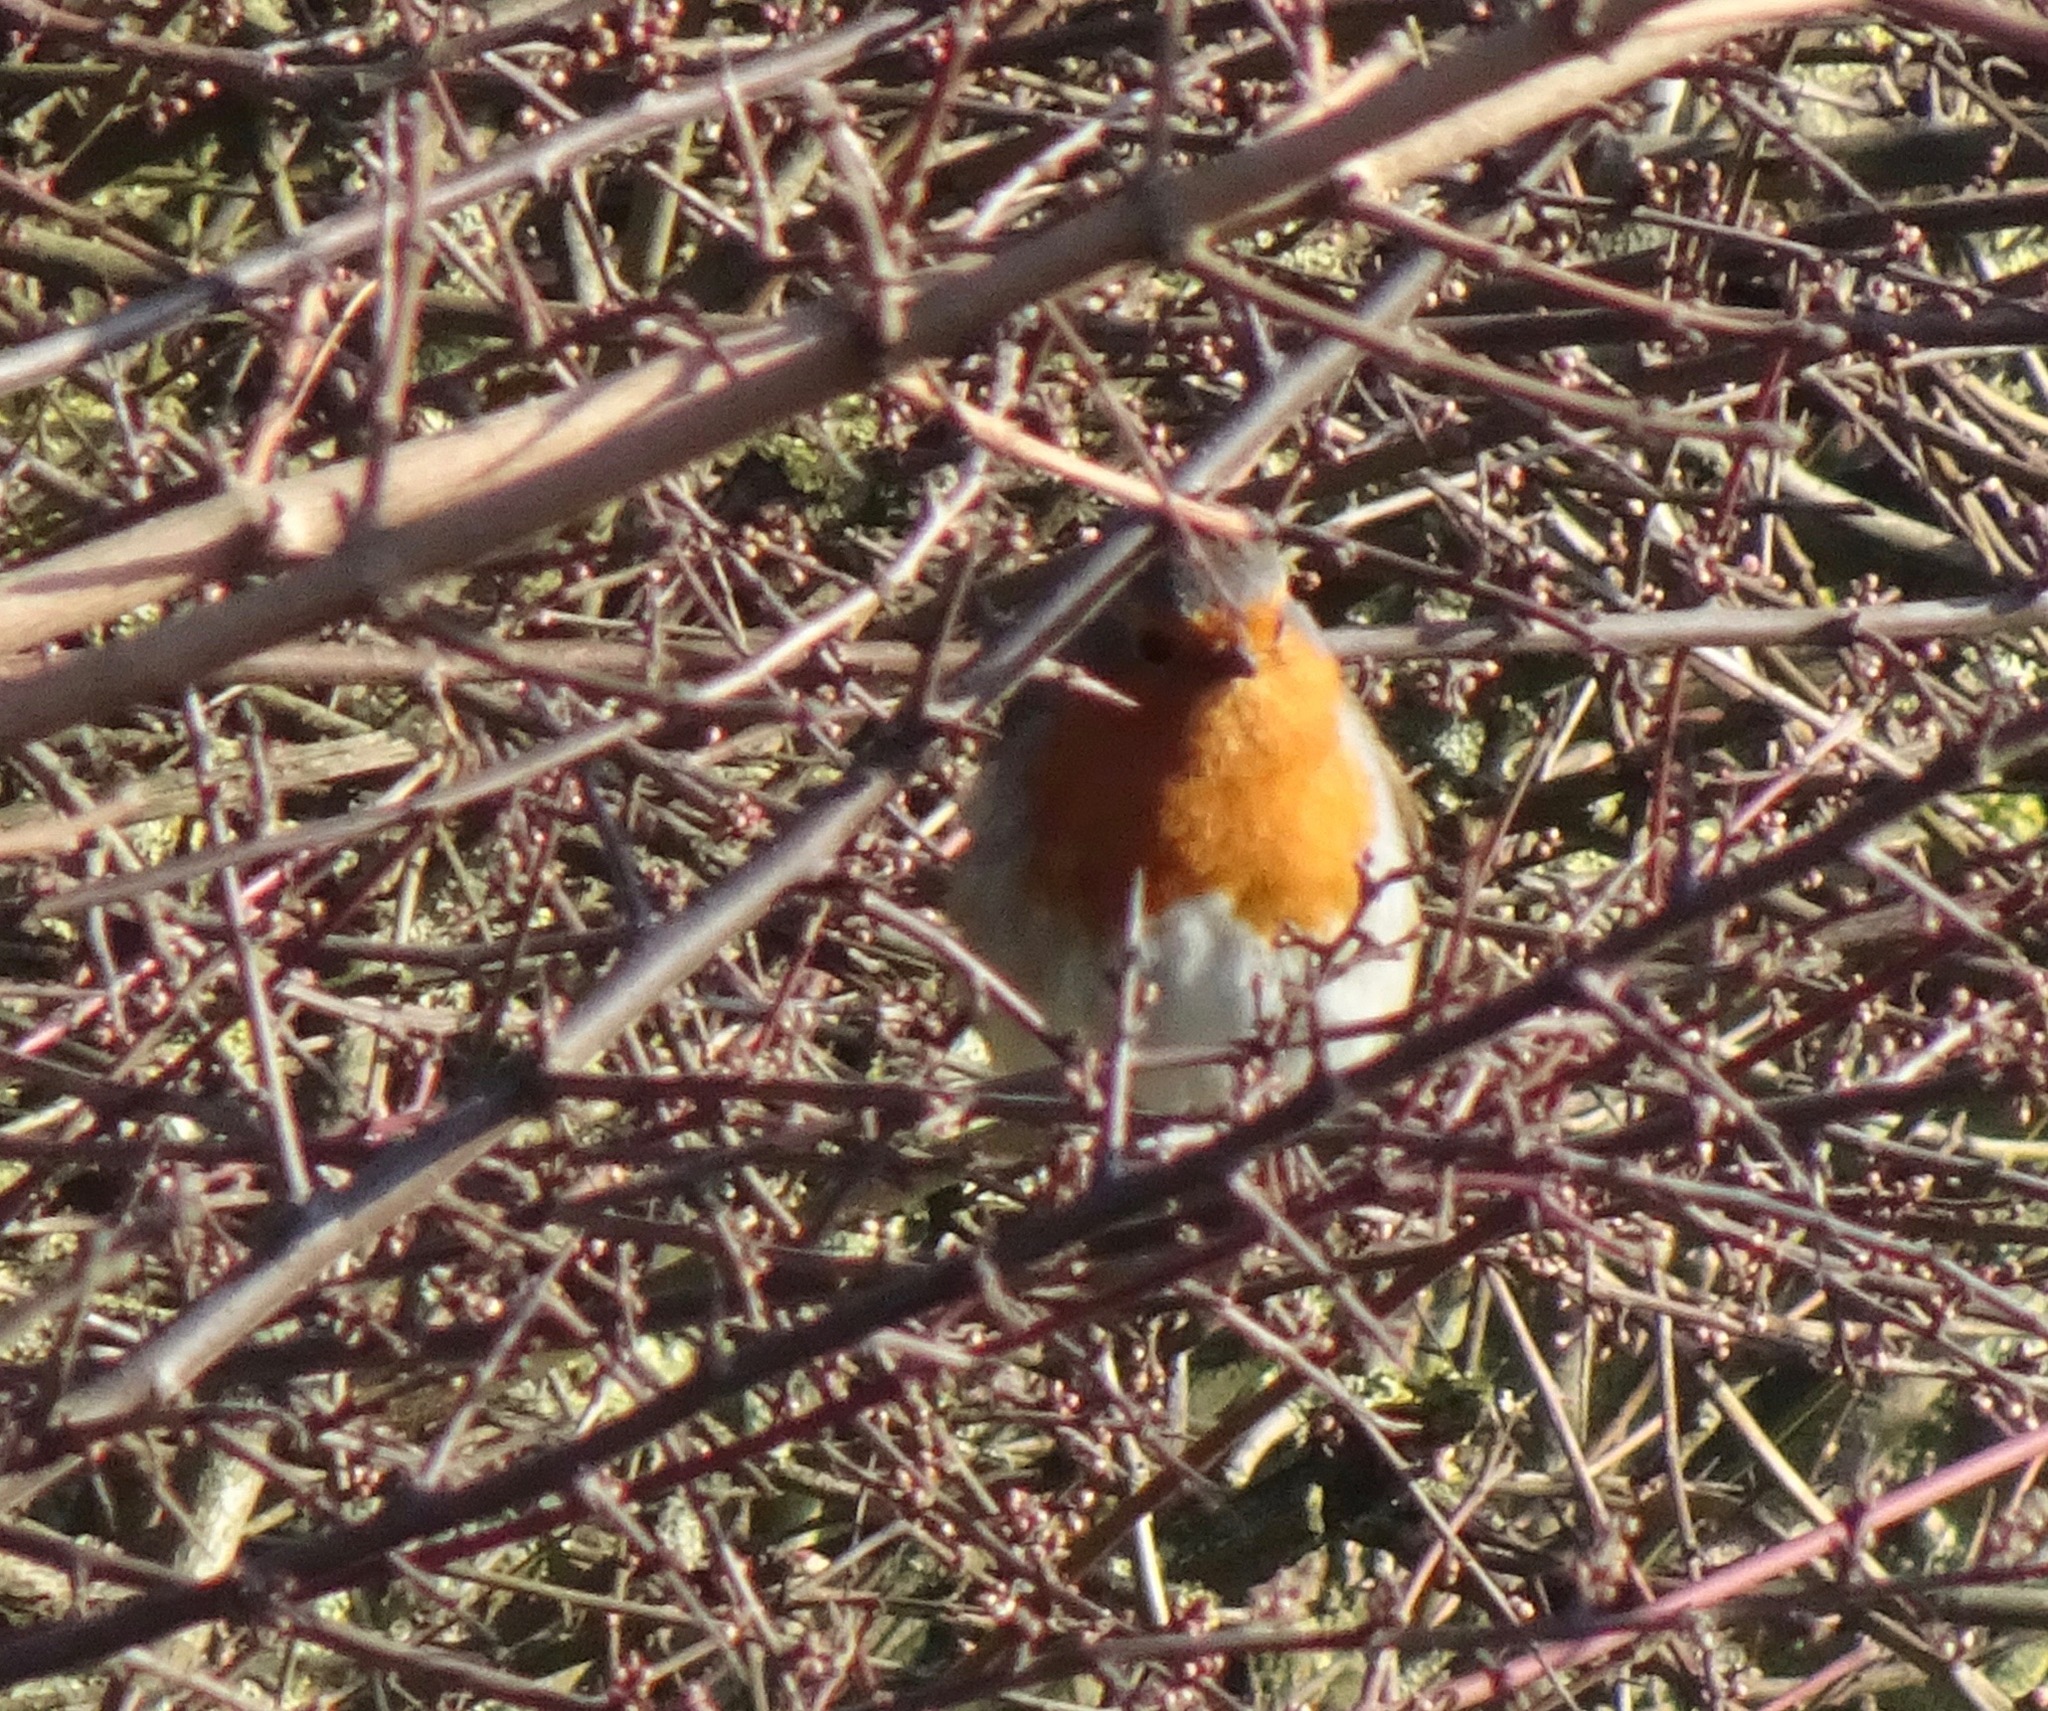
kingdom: Animalia
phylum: Chordata
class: Aves
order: Passeriformes
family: Muscicapidae
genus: Erithacus
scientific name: Erithacus rubecula
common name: European robin
